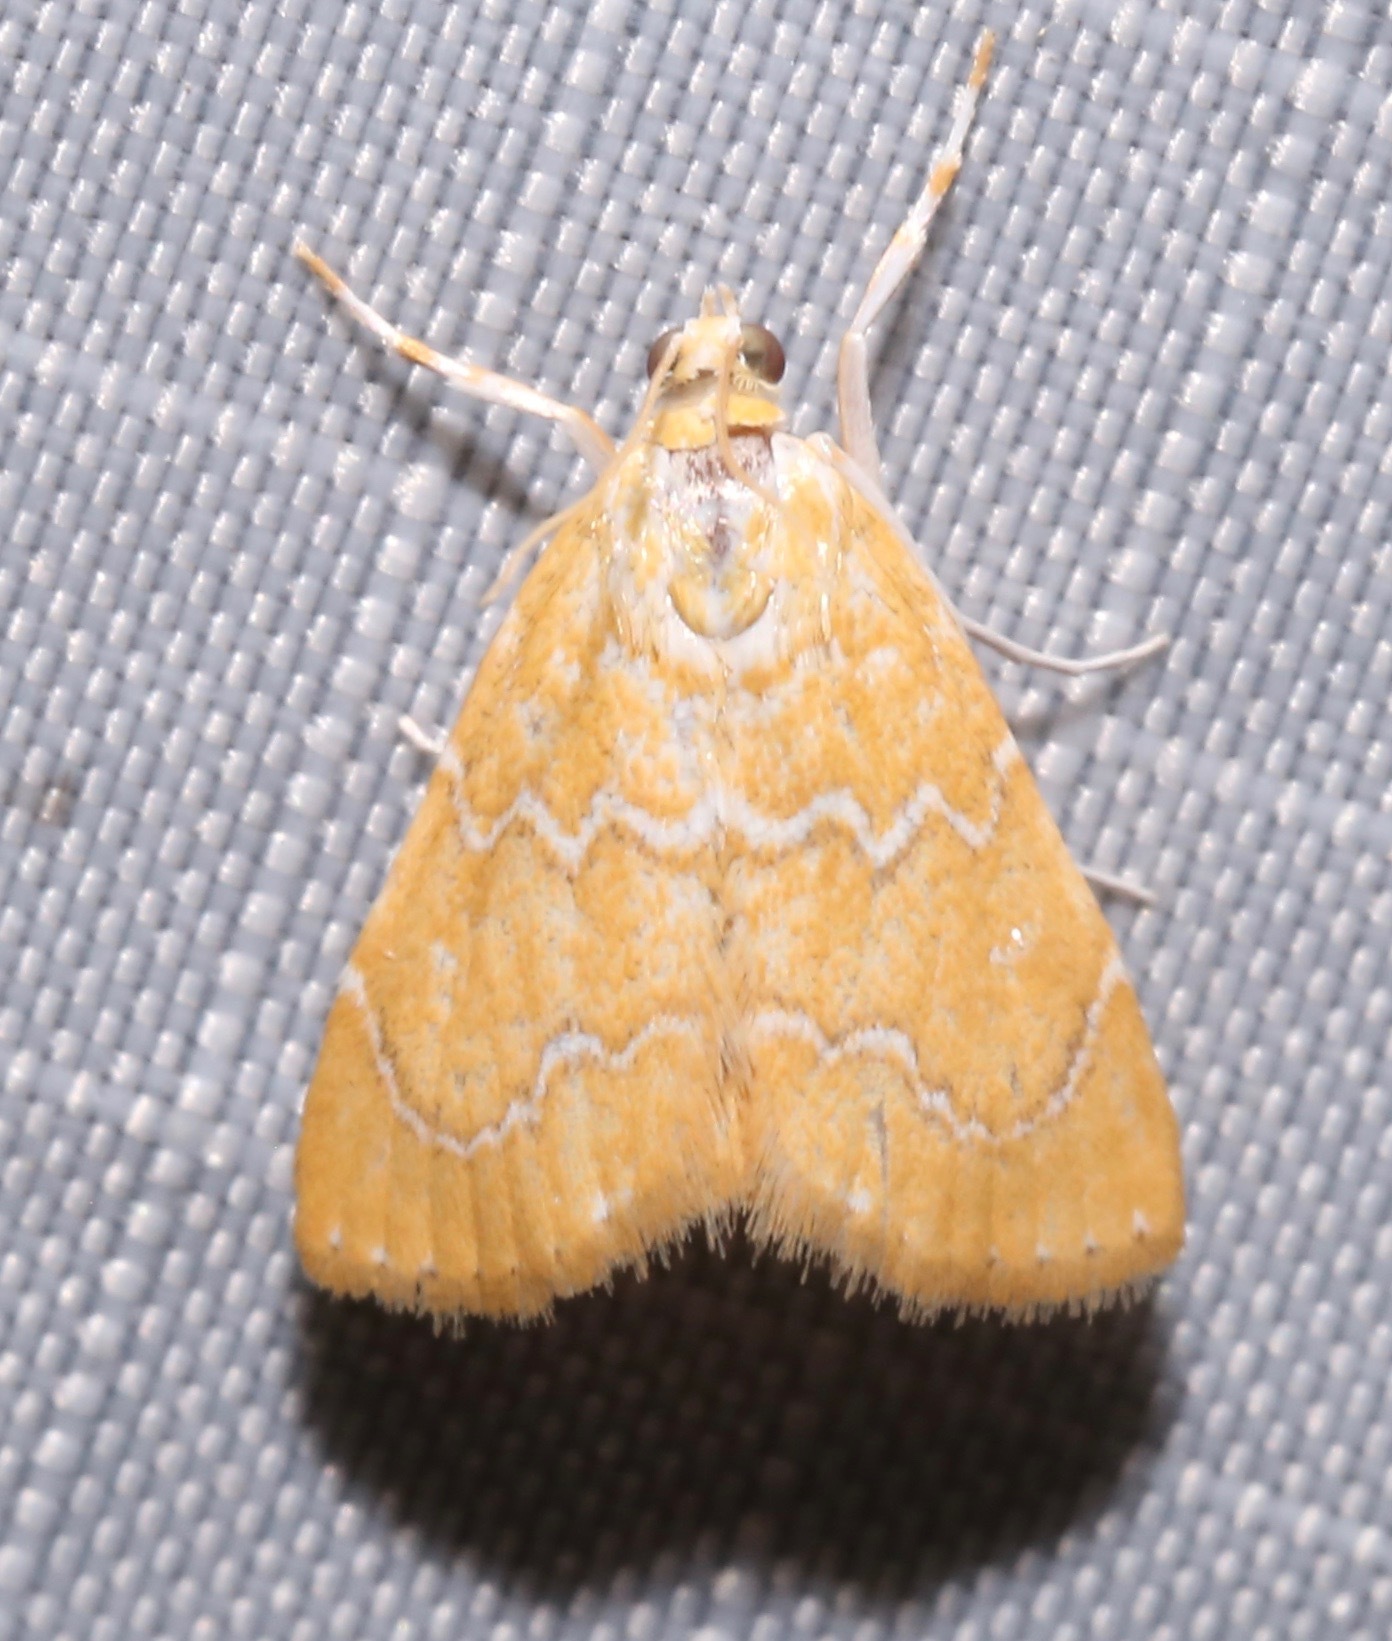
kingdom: Animalia
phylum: Arthropoda
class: Insecta
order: Lepidoptera
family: Crambidae
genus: Glaphyria
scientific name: Glaphyria sesquistrialis
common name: White-roped glaphyria
